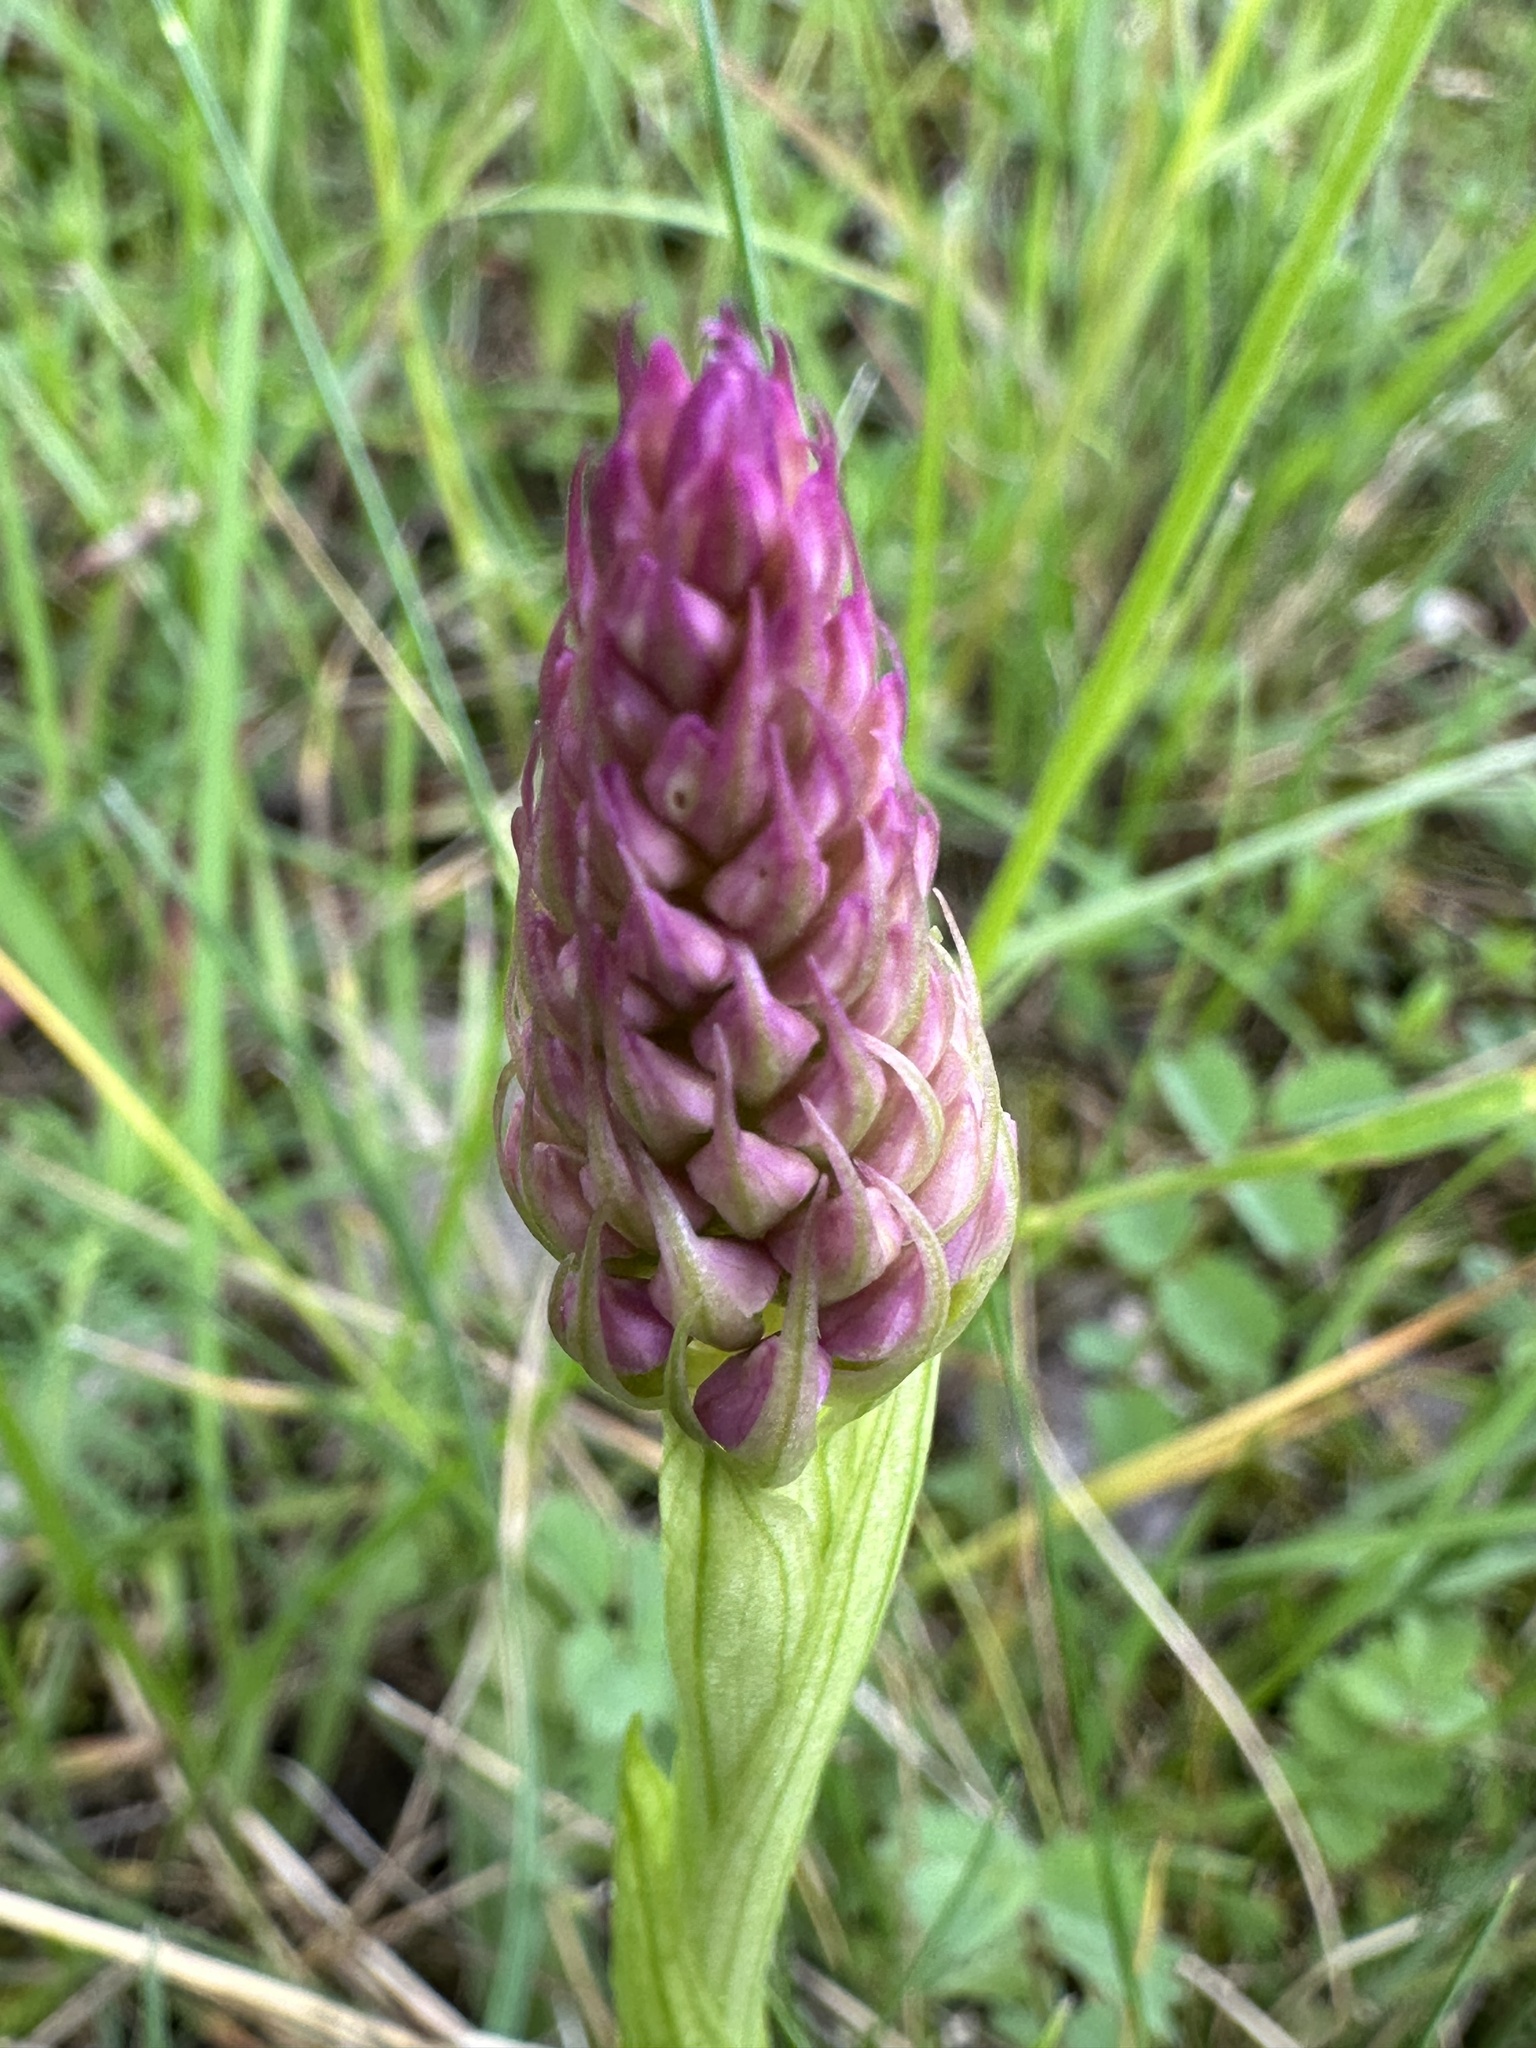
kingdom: Plantae
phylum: Tracheophyta
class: Liliopsida
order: Asparagales
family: Orchidaceae
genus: Anacamptis
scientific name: Anacamptis pyramidalis
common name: Pyramidal orchid
